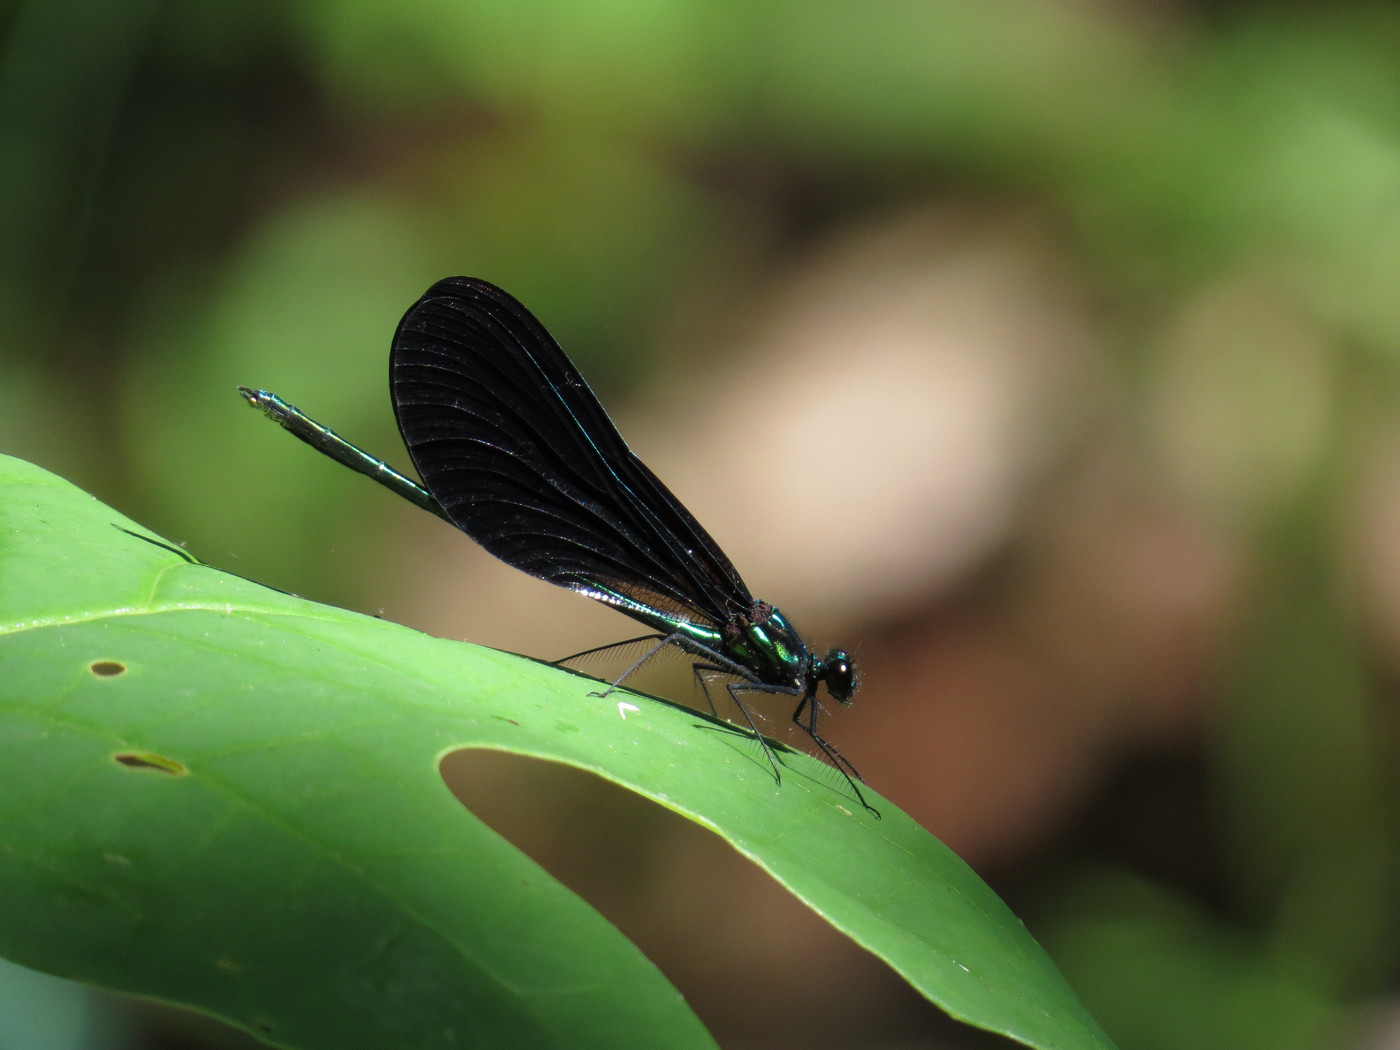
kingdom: Animalia
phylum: Arthropoda
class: Insecta
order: Odonata
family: Calopterygidae
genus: Calopteryx
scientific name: Calopteryx maculata
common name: Ebony jewelwing
